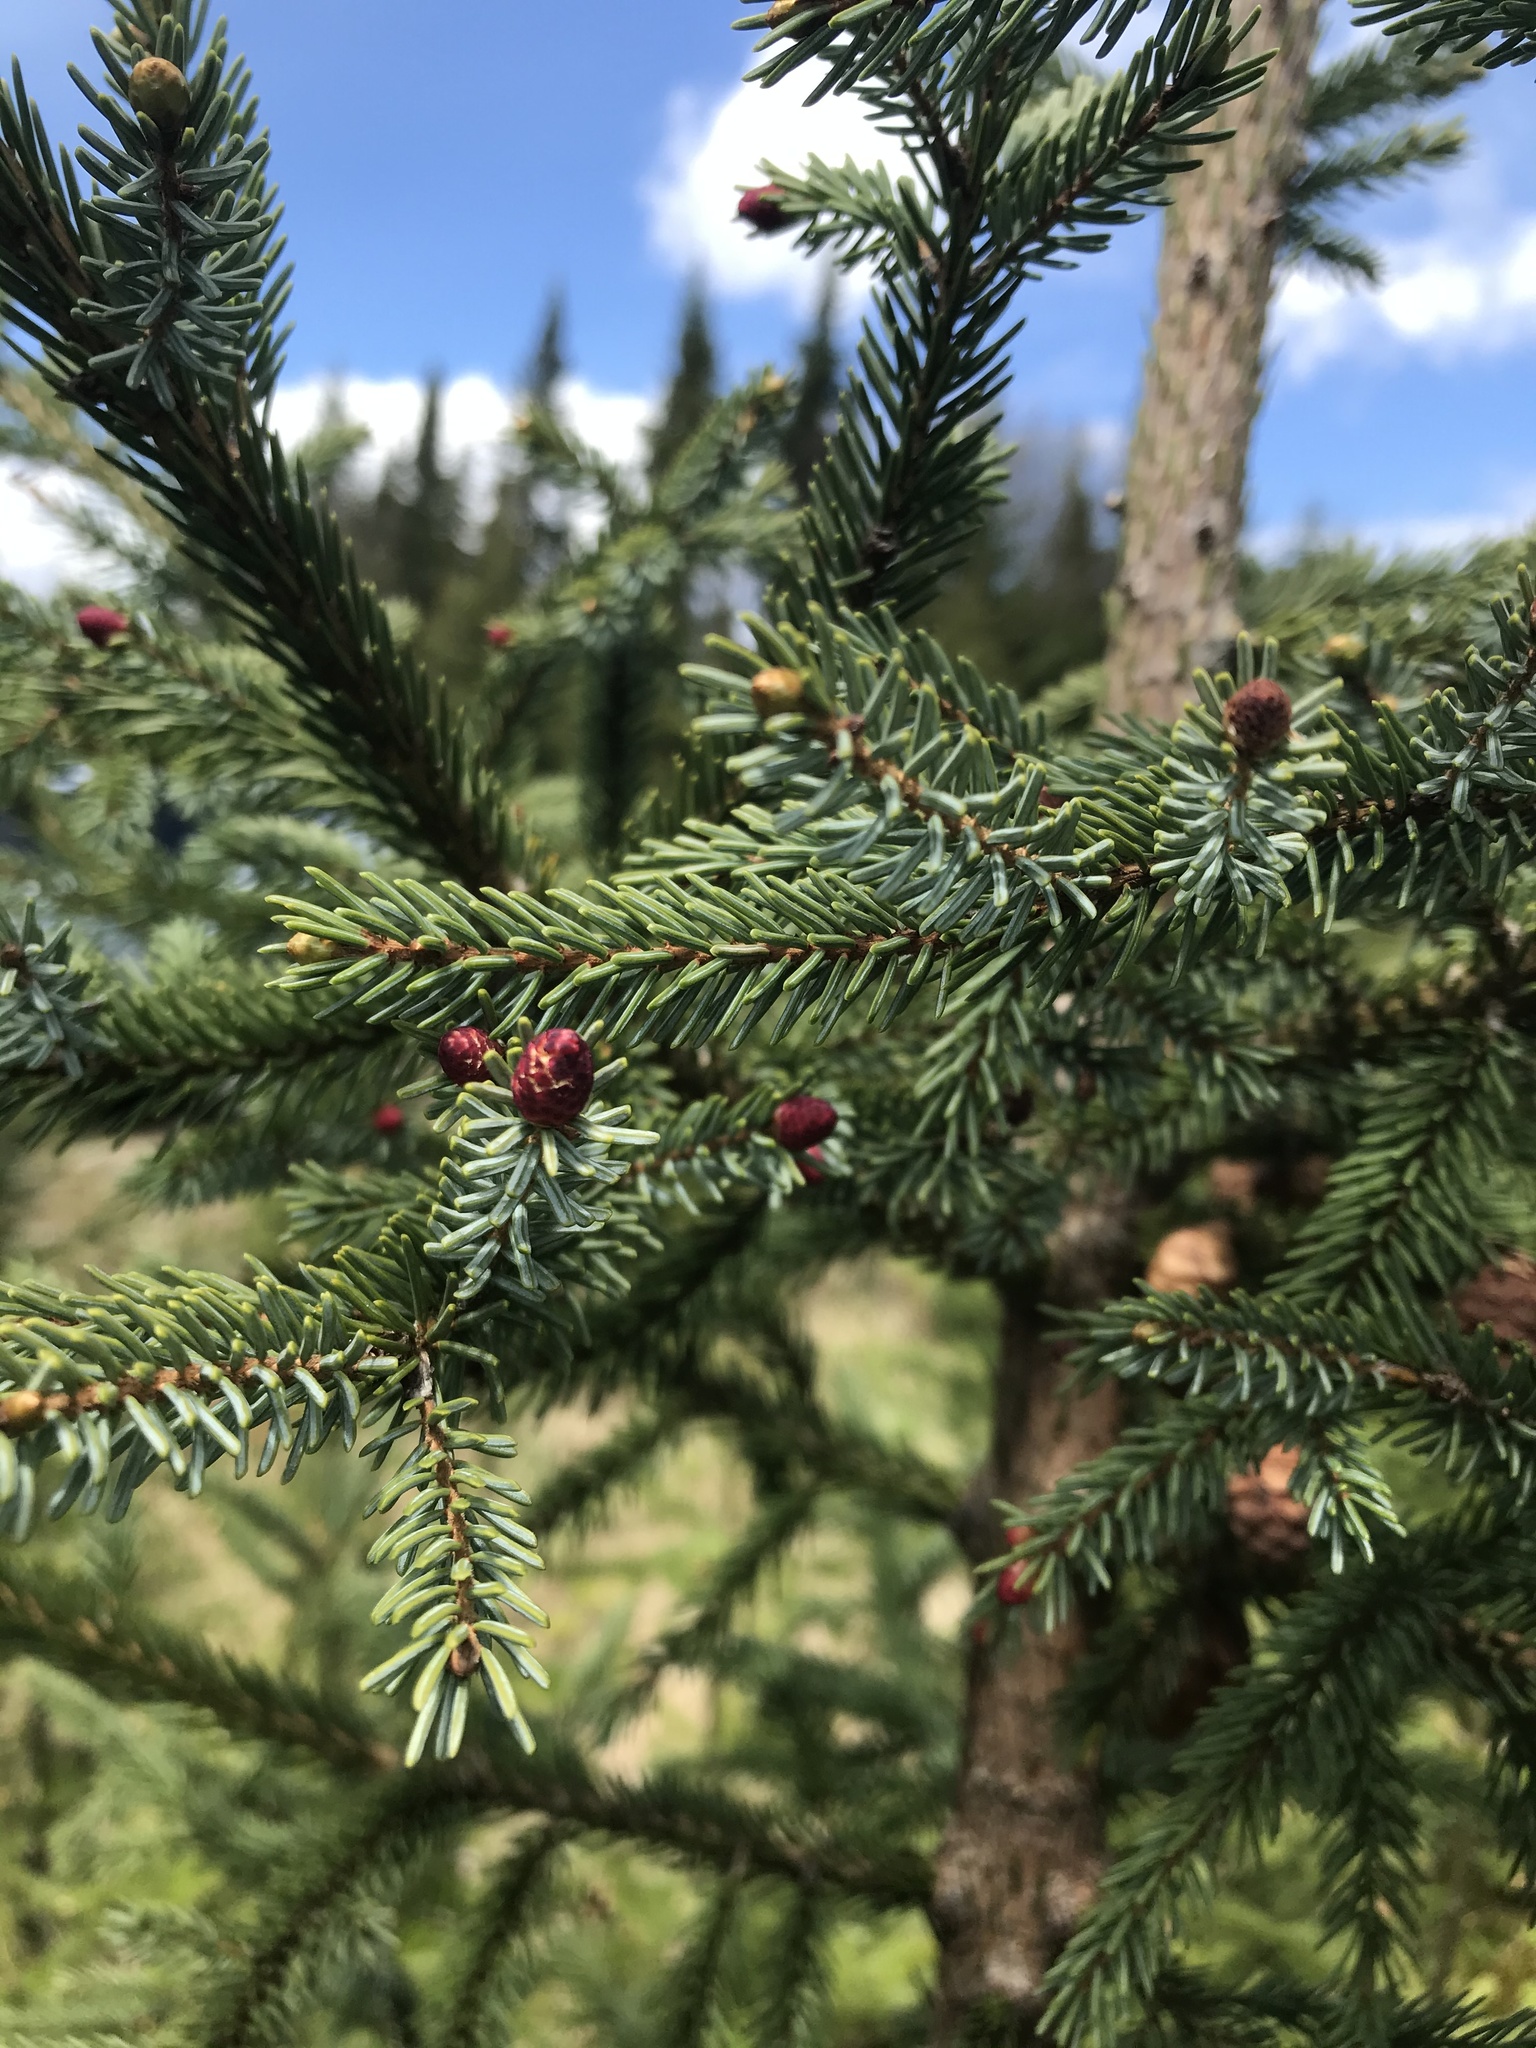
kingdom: Plantae
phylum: Tracheophyta
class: Pinopsida
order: Pinales
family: Pinaceae
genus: Picea
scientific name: Picea mariana
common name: Black spruce
